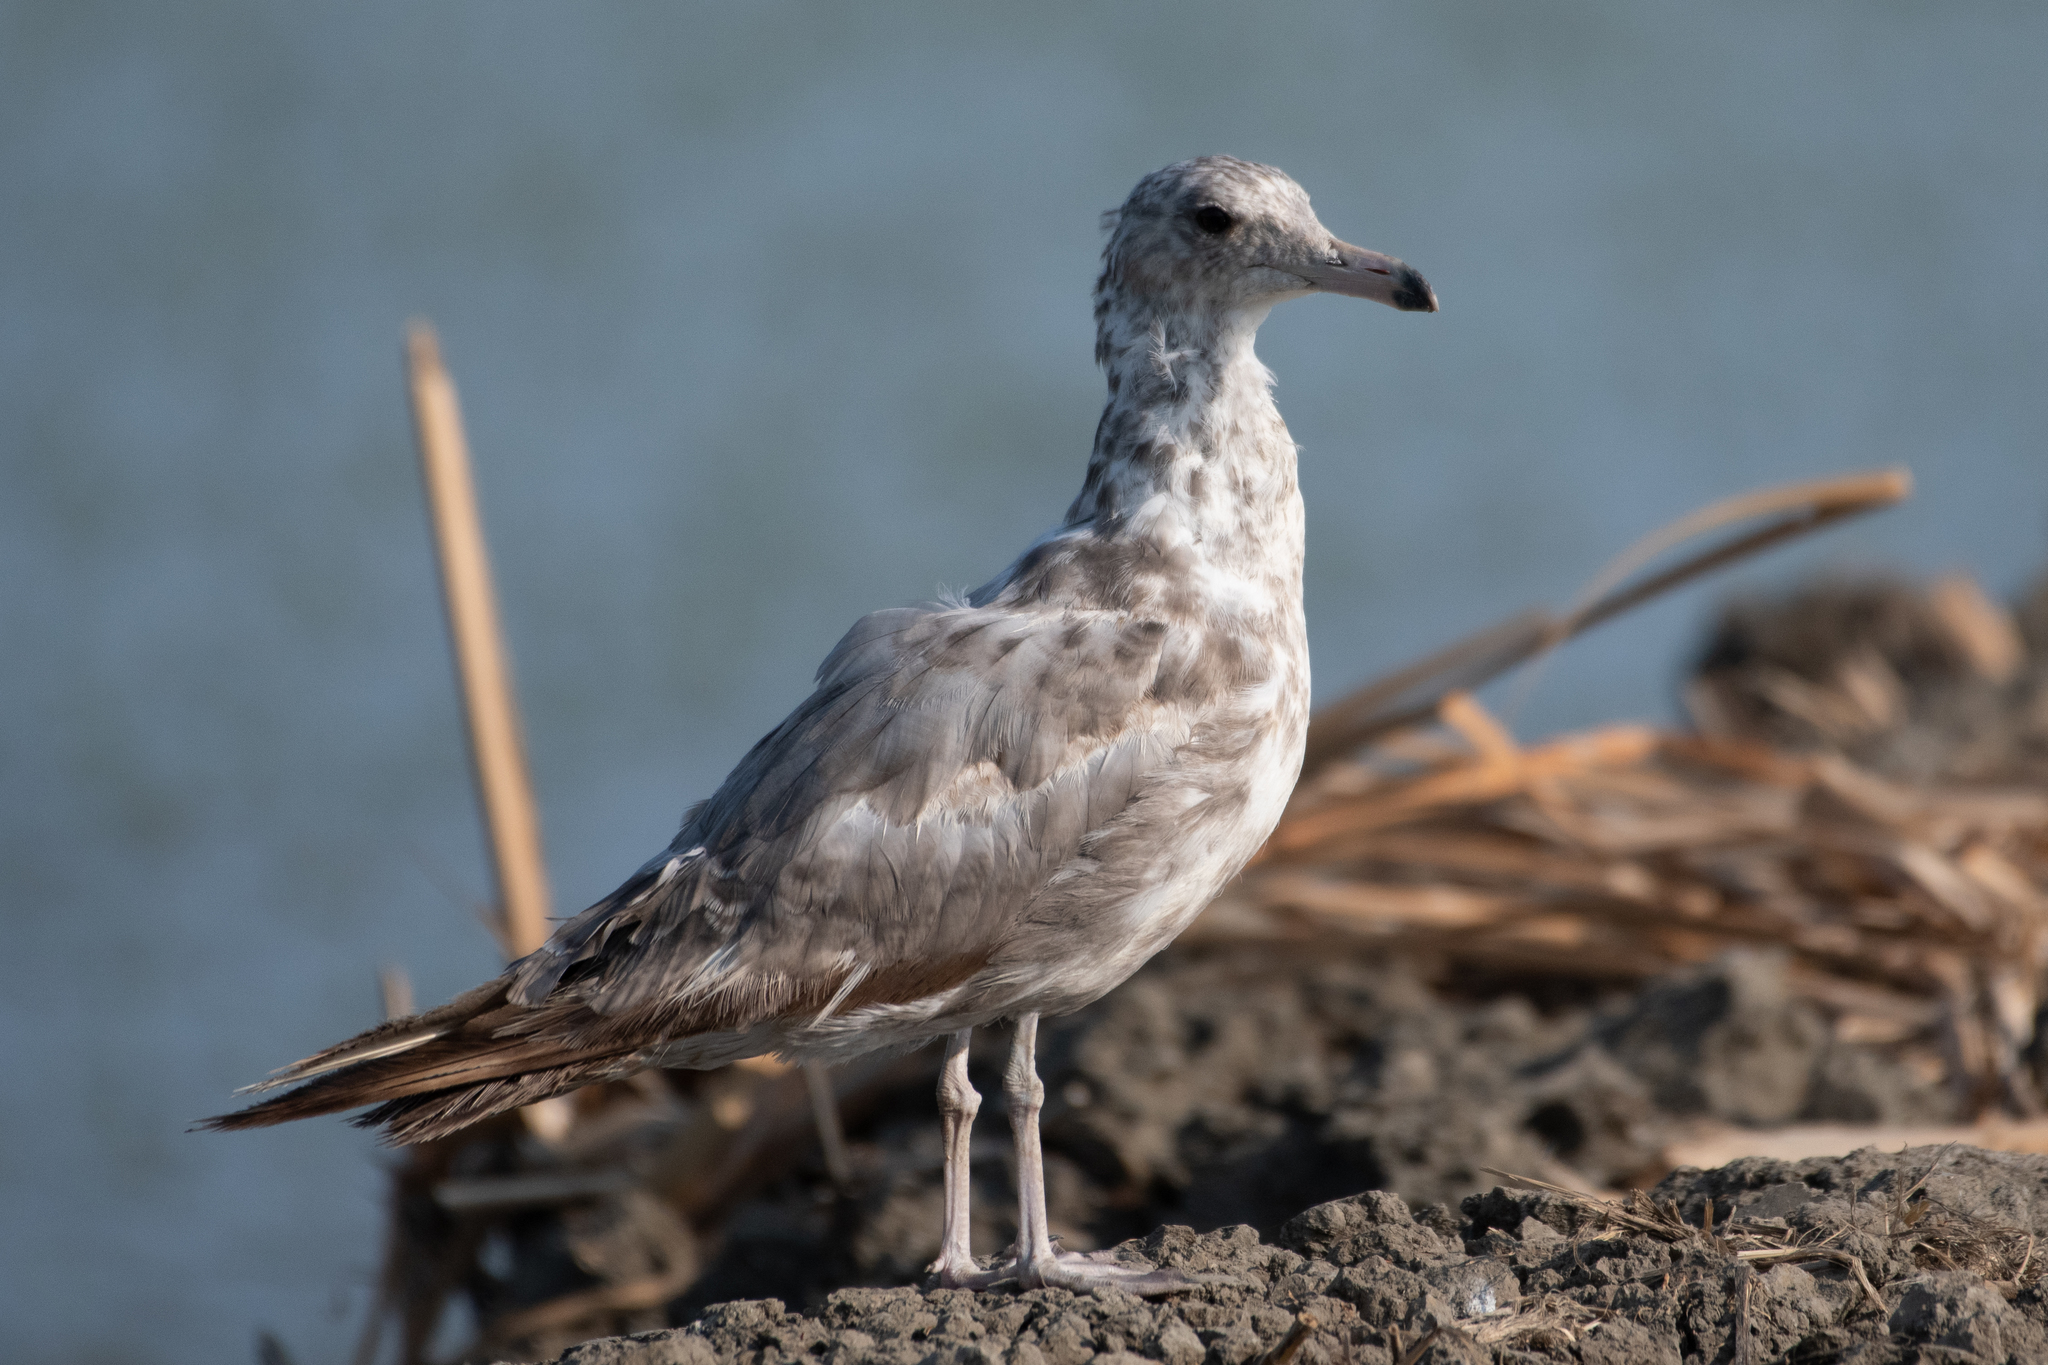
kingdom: Animalia
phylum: Chordata
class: Aves
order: Charadriiformes
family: Laridae
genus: Larus
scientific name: Larus californicus
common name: California gull
